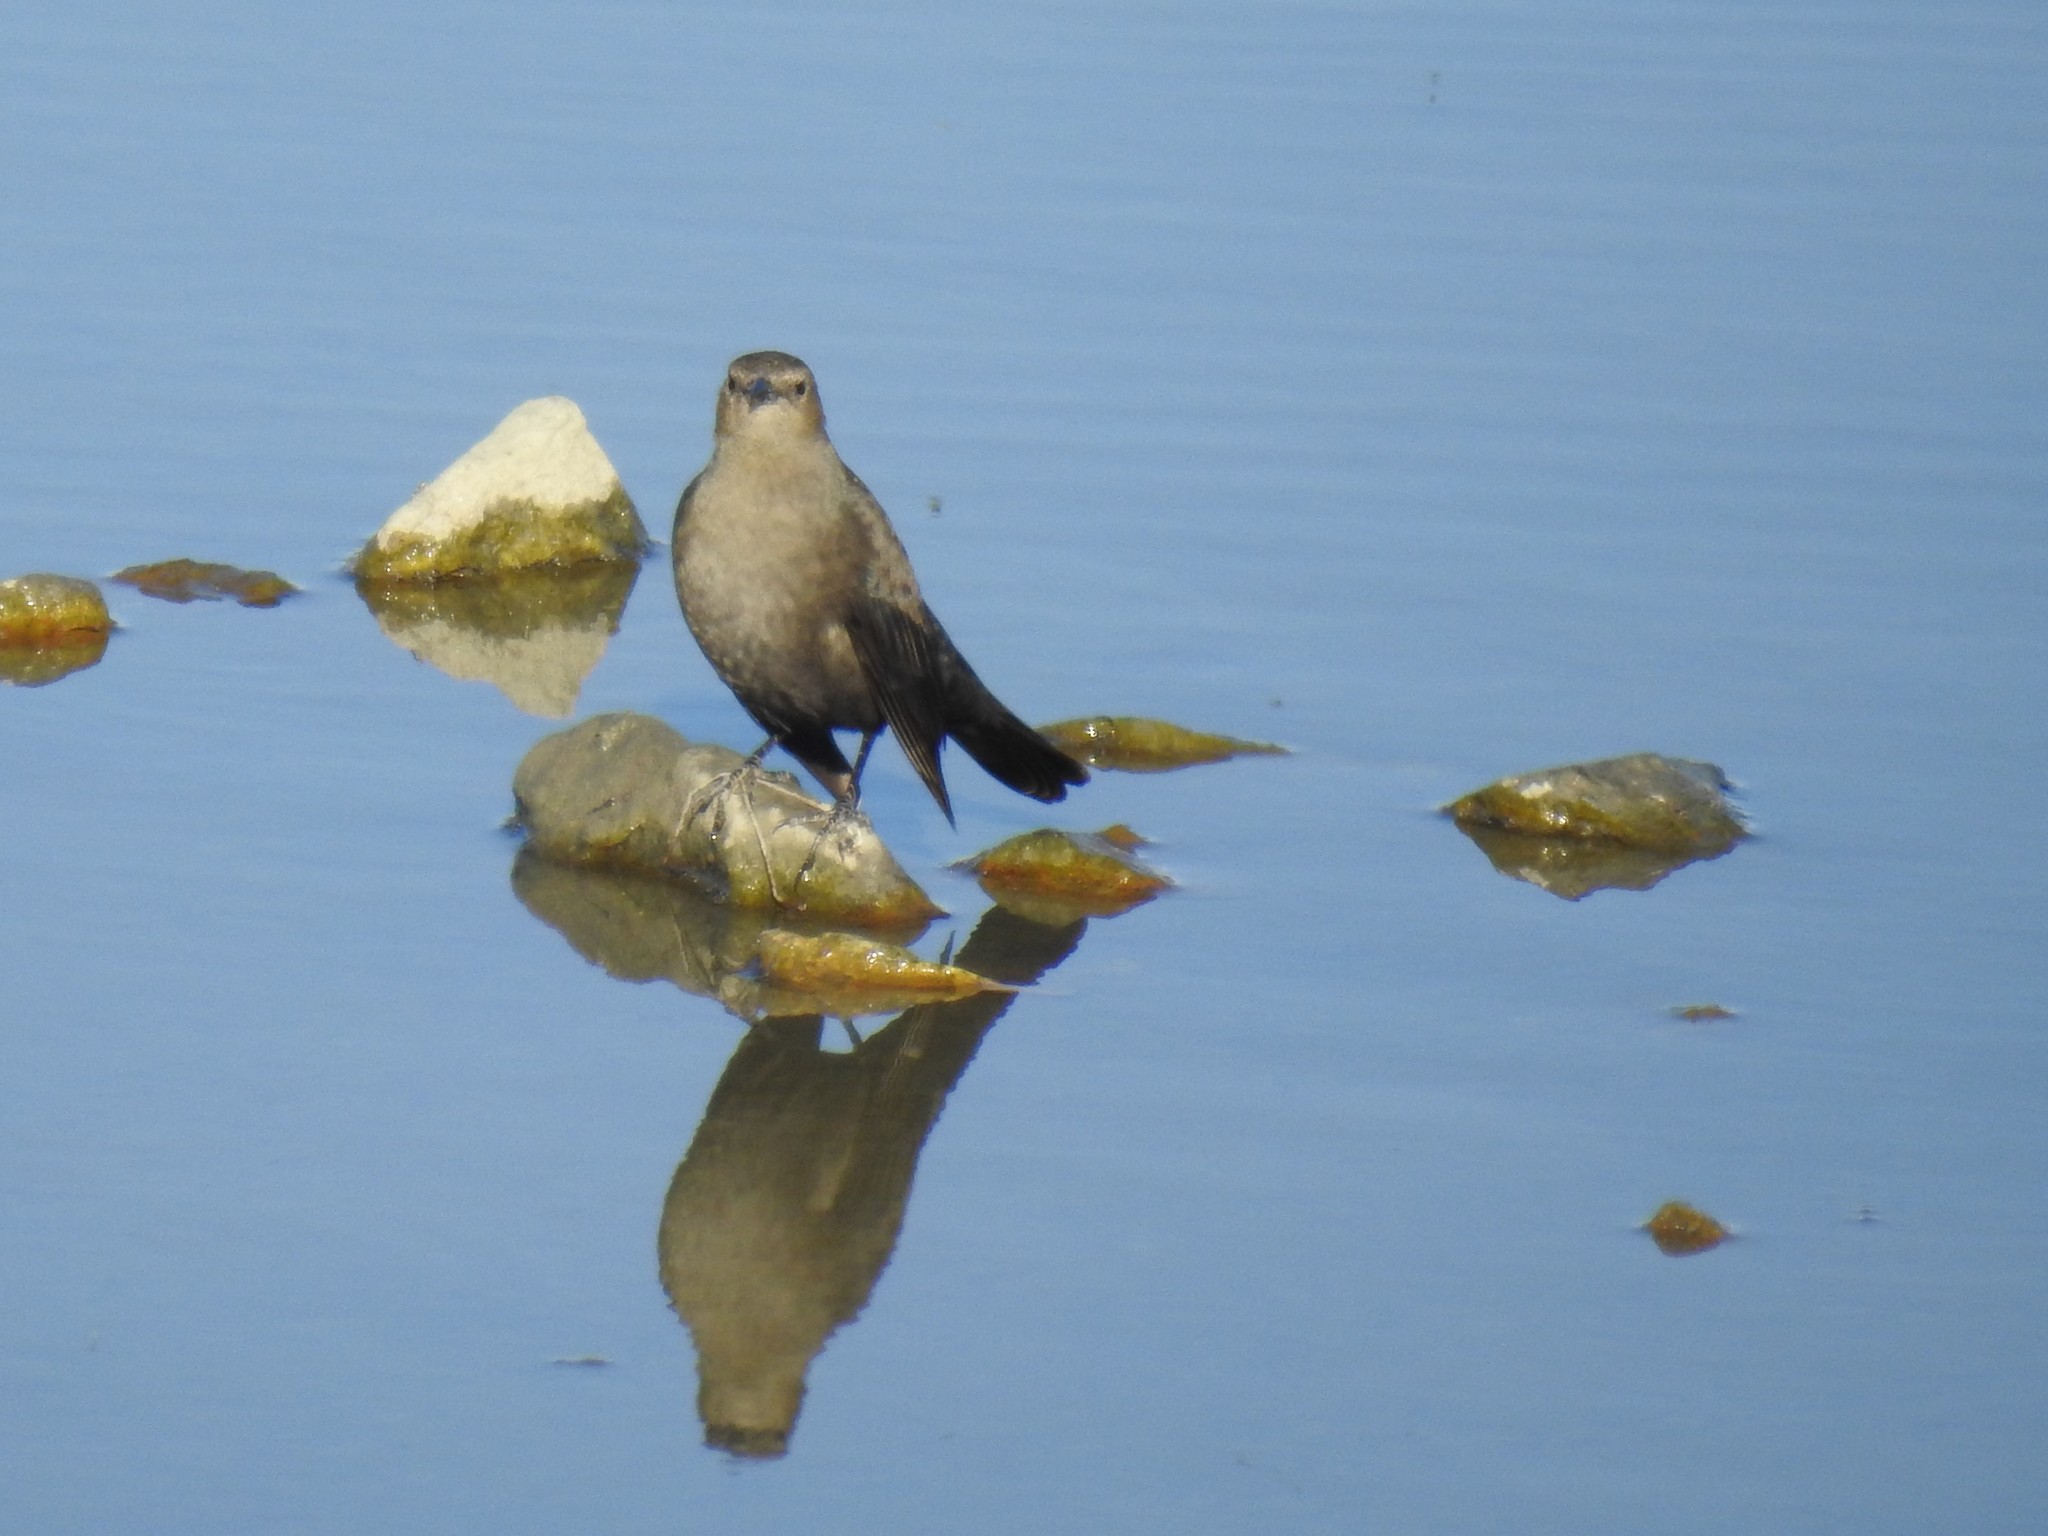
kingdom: Animalia
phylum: Chordata
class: Aves
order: Passeriformes
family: Icteridae
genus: Euphagus
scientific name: Euphagus cyanocephalus
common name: Brewer's blackbird
